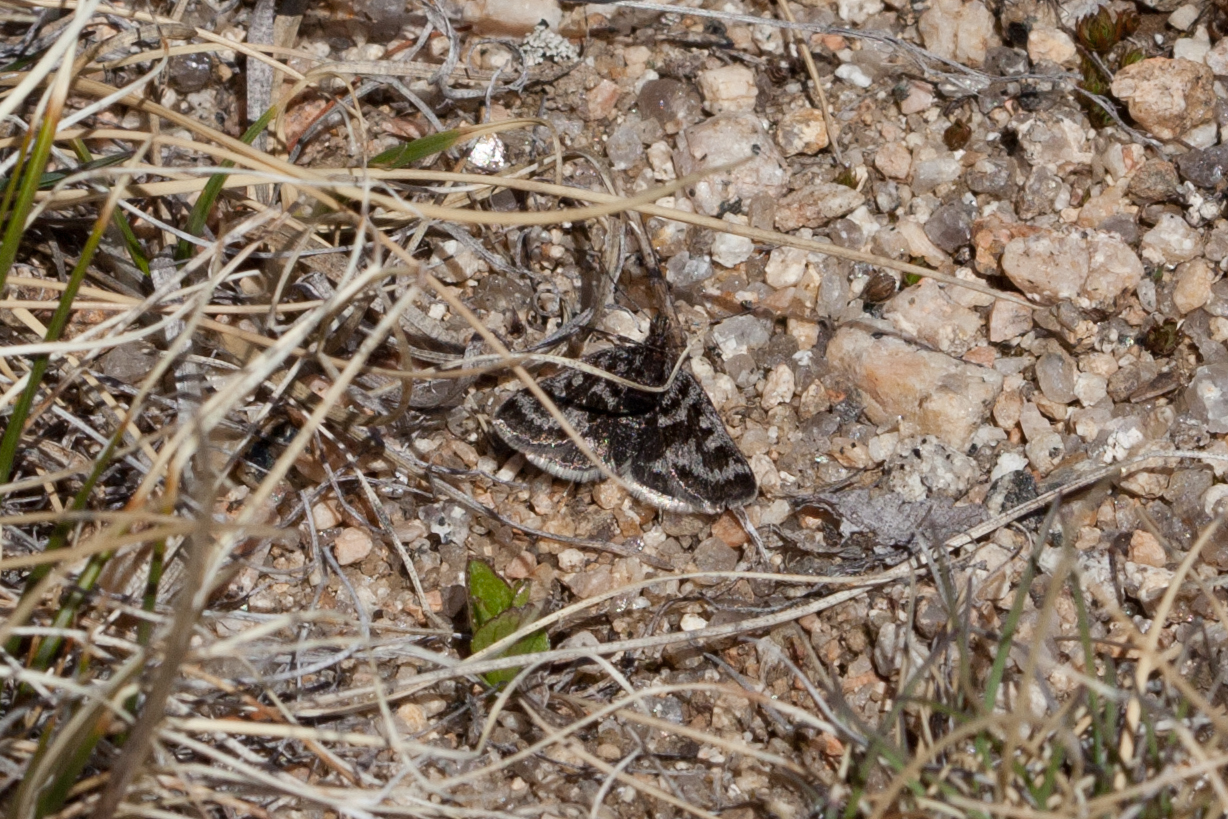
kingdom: Animalia
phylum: Arthropoda
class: Insecta
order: Lepidoptera
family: Crambidae
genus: Metaxmeste
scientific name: Metaxmeste schrankiana
